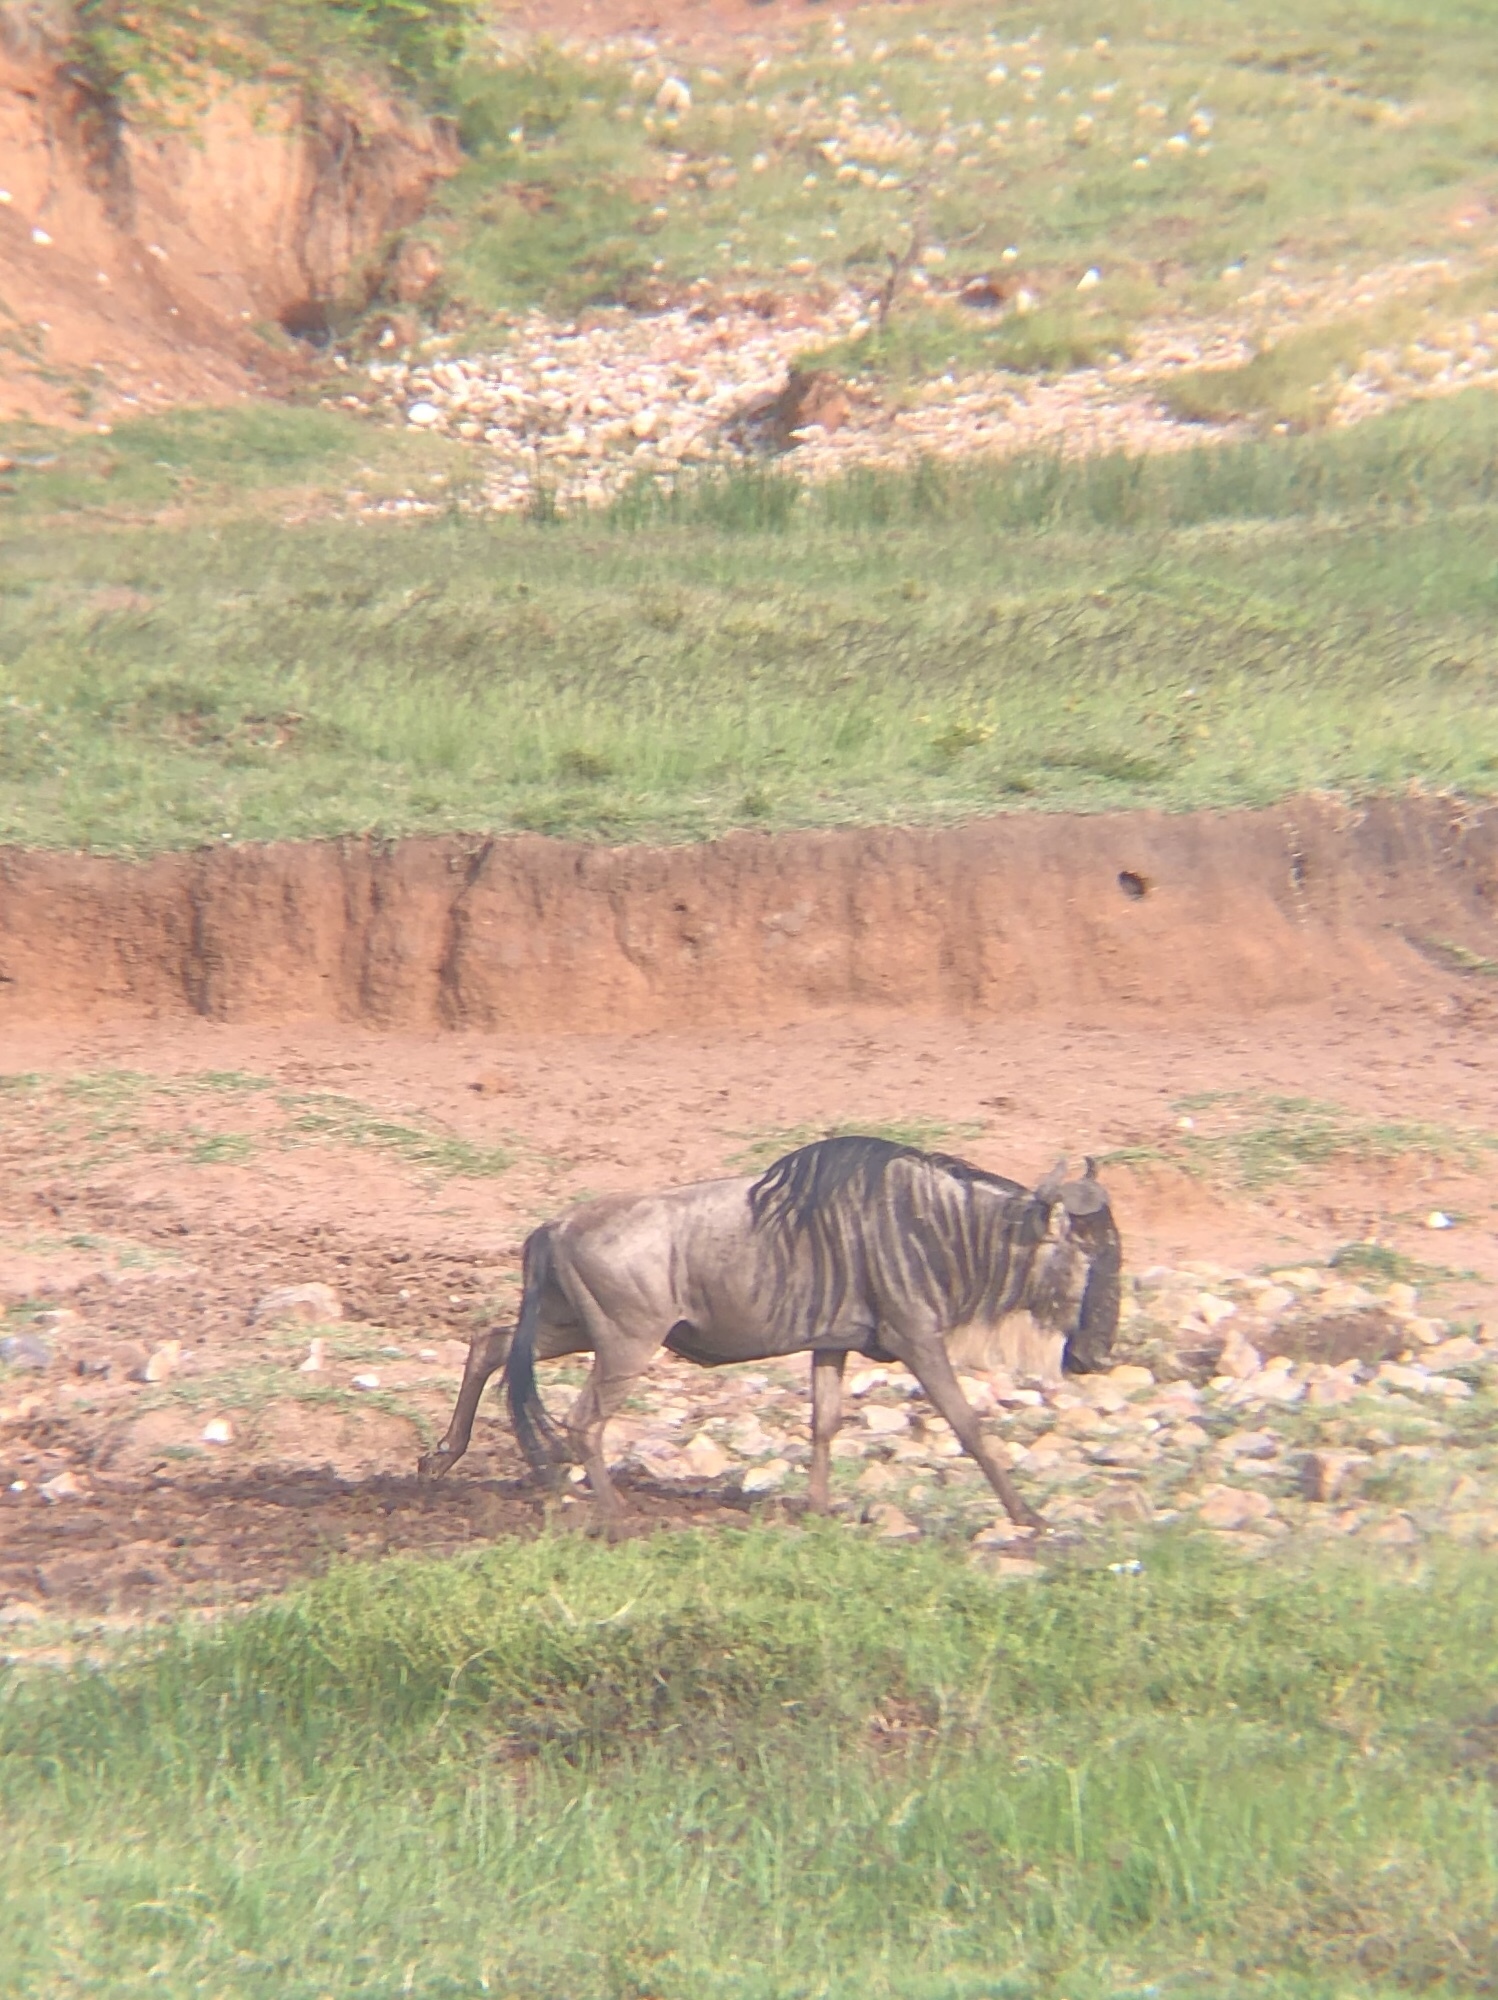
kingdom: Animalia
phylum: Chordata
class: Mammalia
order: Artiodactyla
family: Bovidae
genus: Connochaetes
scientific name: Connochaetes taurinus
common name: Blue wildebeest
